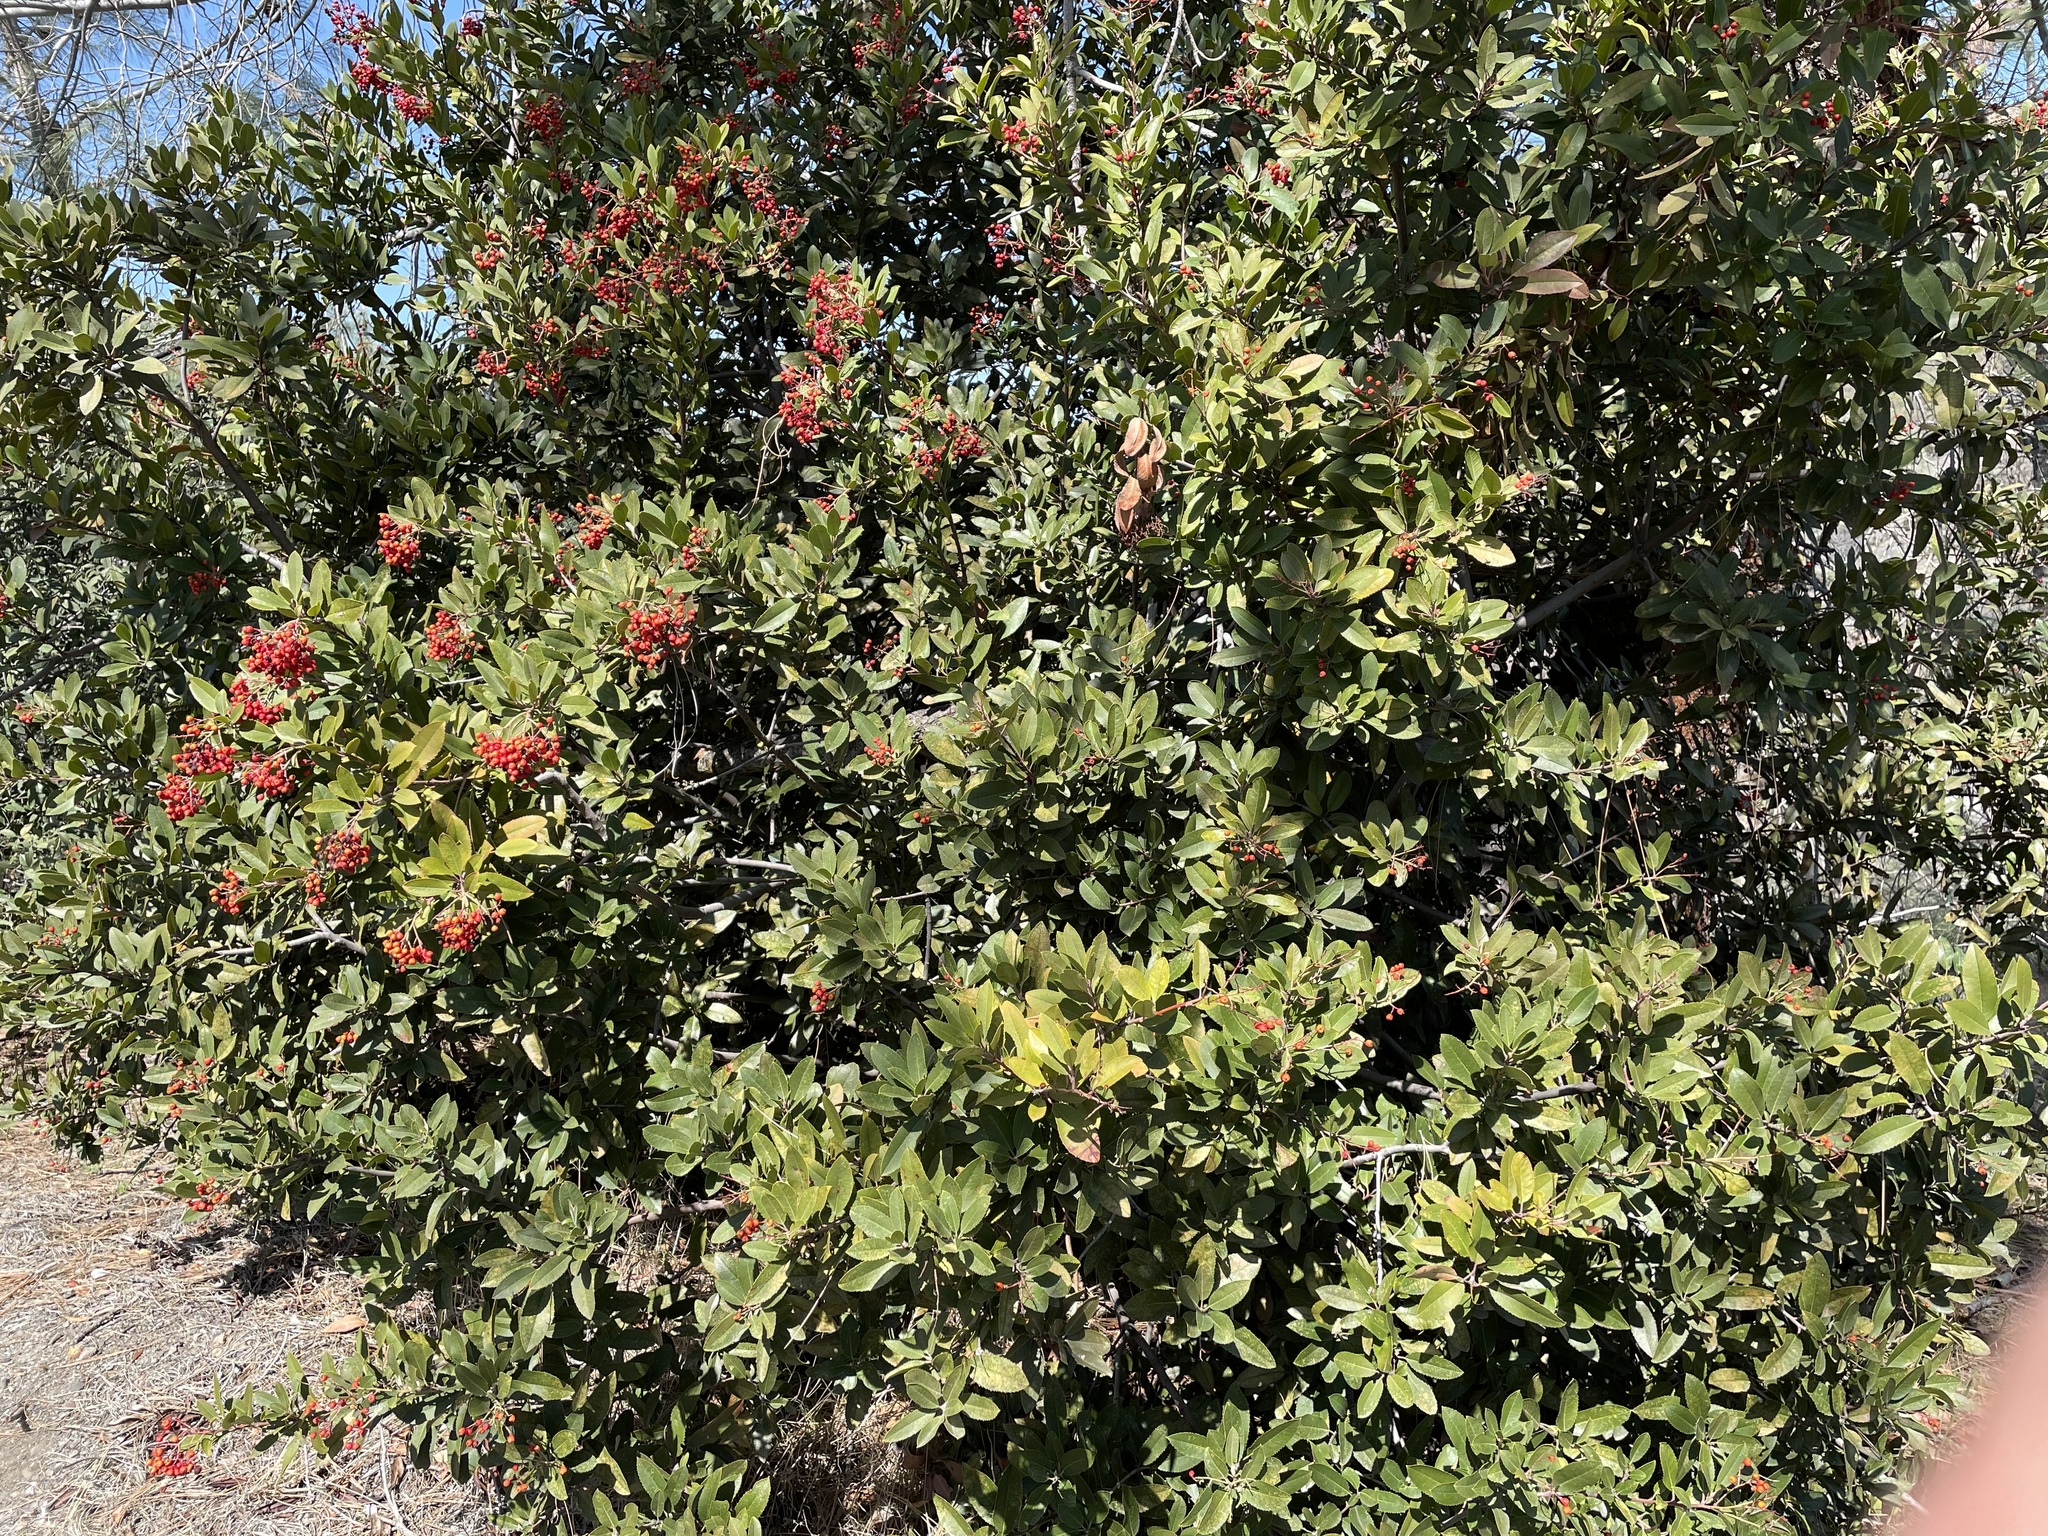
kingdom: Plantae
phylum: Tracheophyta
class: Magnoliopsida
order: Rosales
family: Rosaceae
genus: Heteromeles
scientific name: Heteromeles arbutifolia
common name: California-holly
